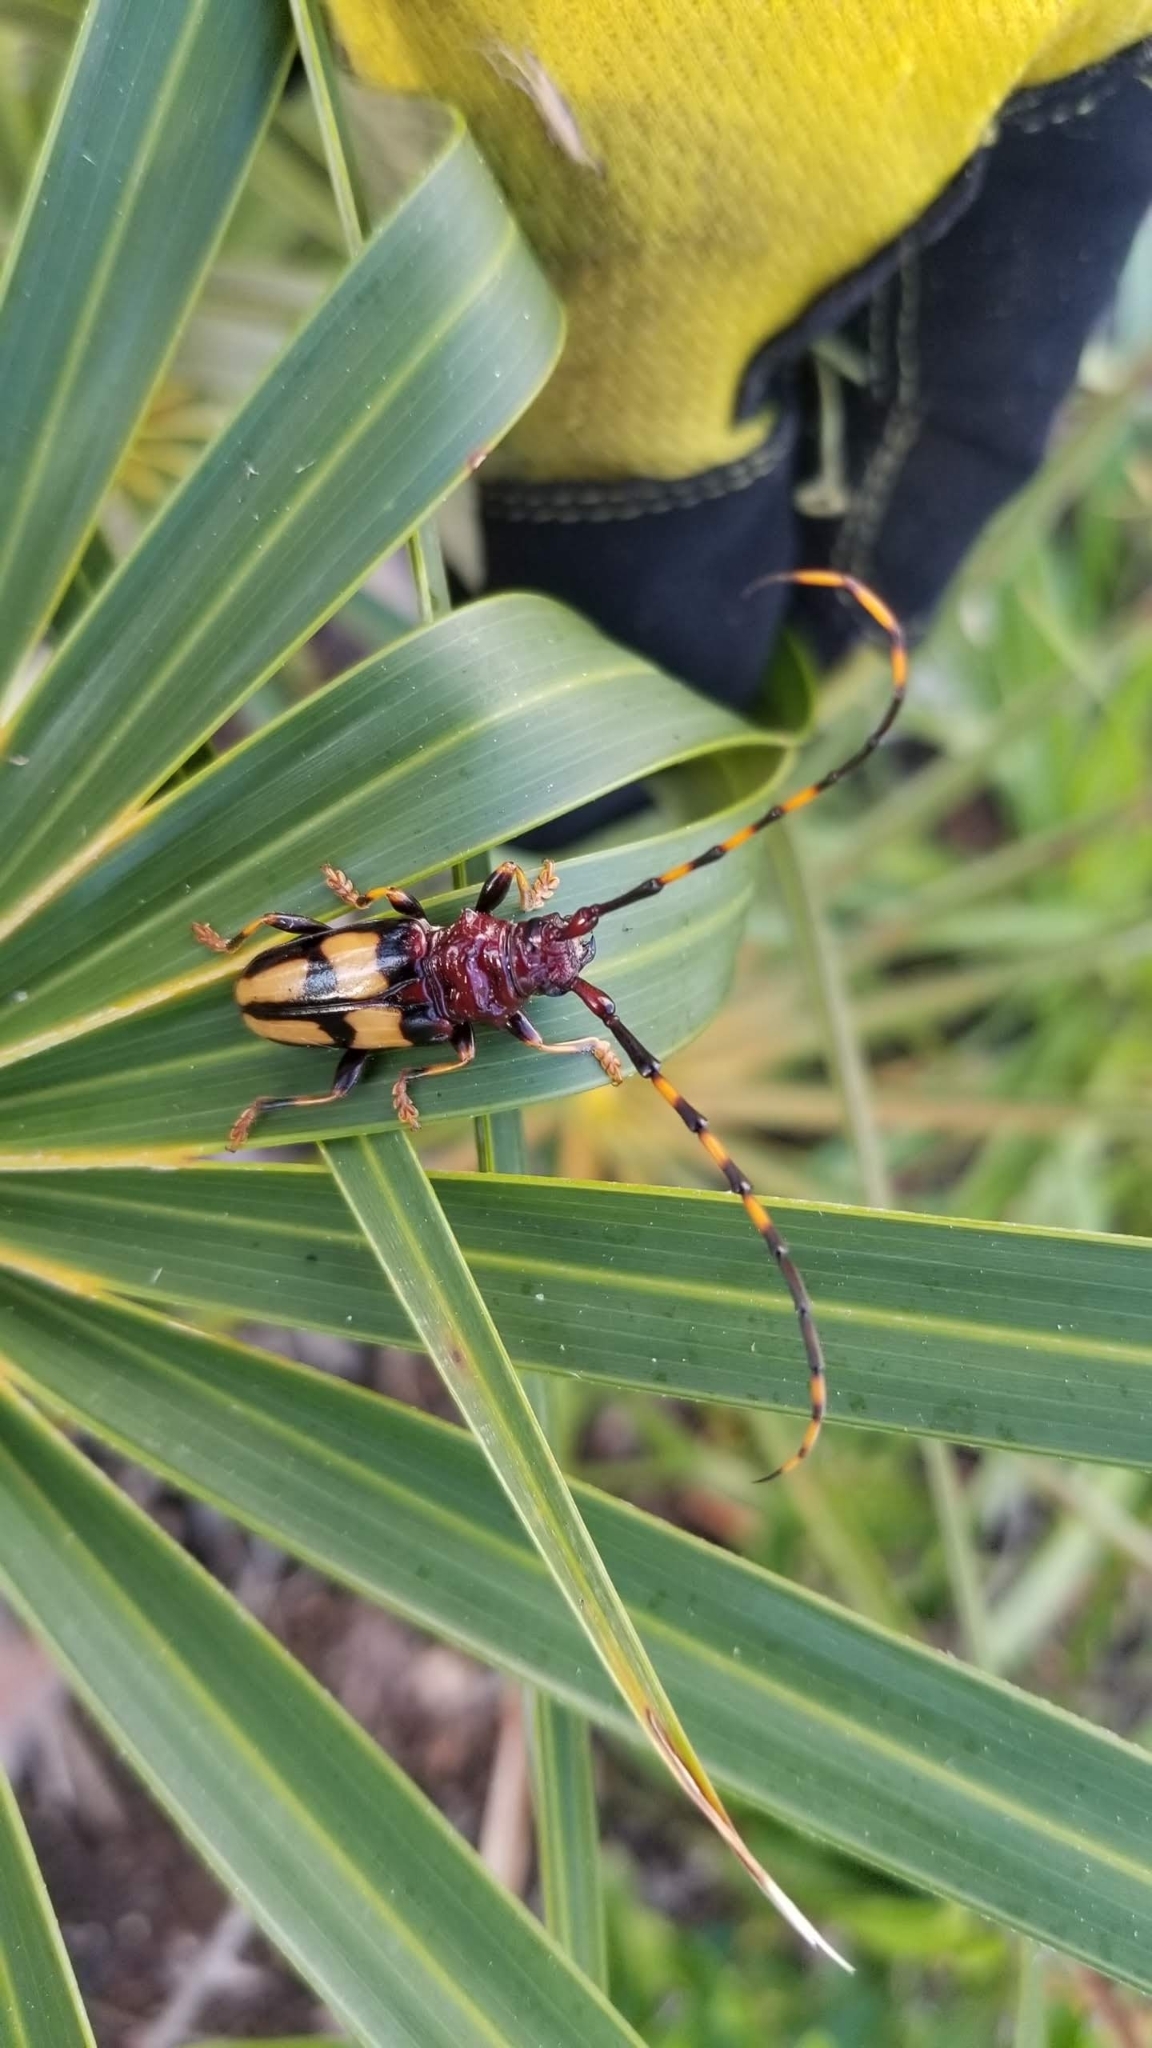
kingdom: Animalia
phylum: Arthropoda
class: Insecta
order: Coleoptera
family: Cerambycidae
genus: Trachyderes
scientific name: Trachyderes mandibularis
